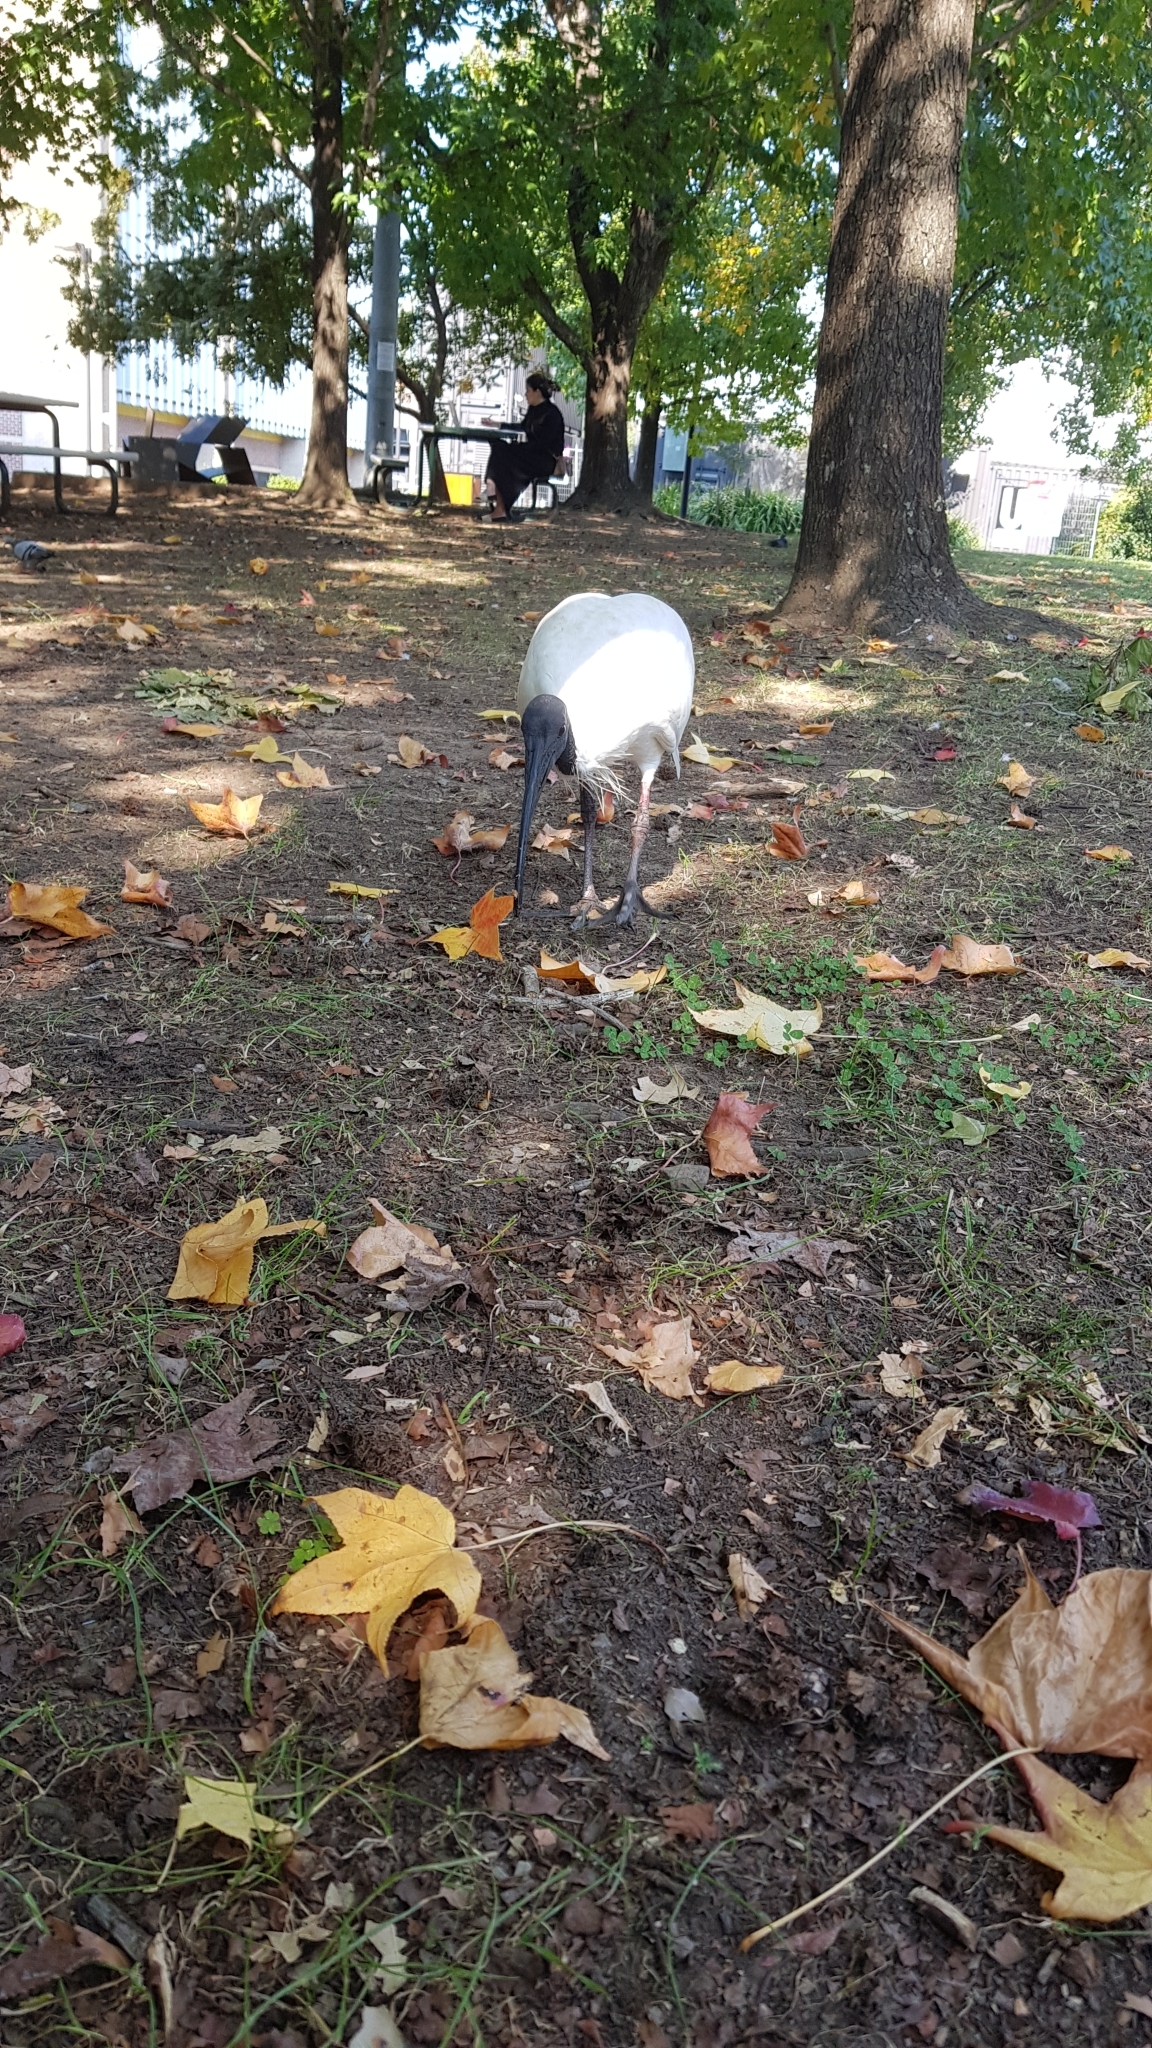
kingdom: Animalia
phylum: Chordata
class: Aves
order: Pelecaniformes
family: Threskiornithidae
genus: Threskiornis
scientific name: Threskiornis molucca
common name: Australian white ibis
